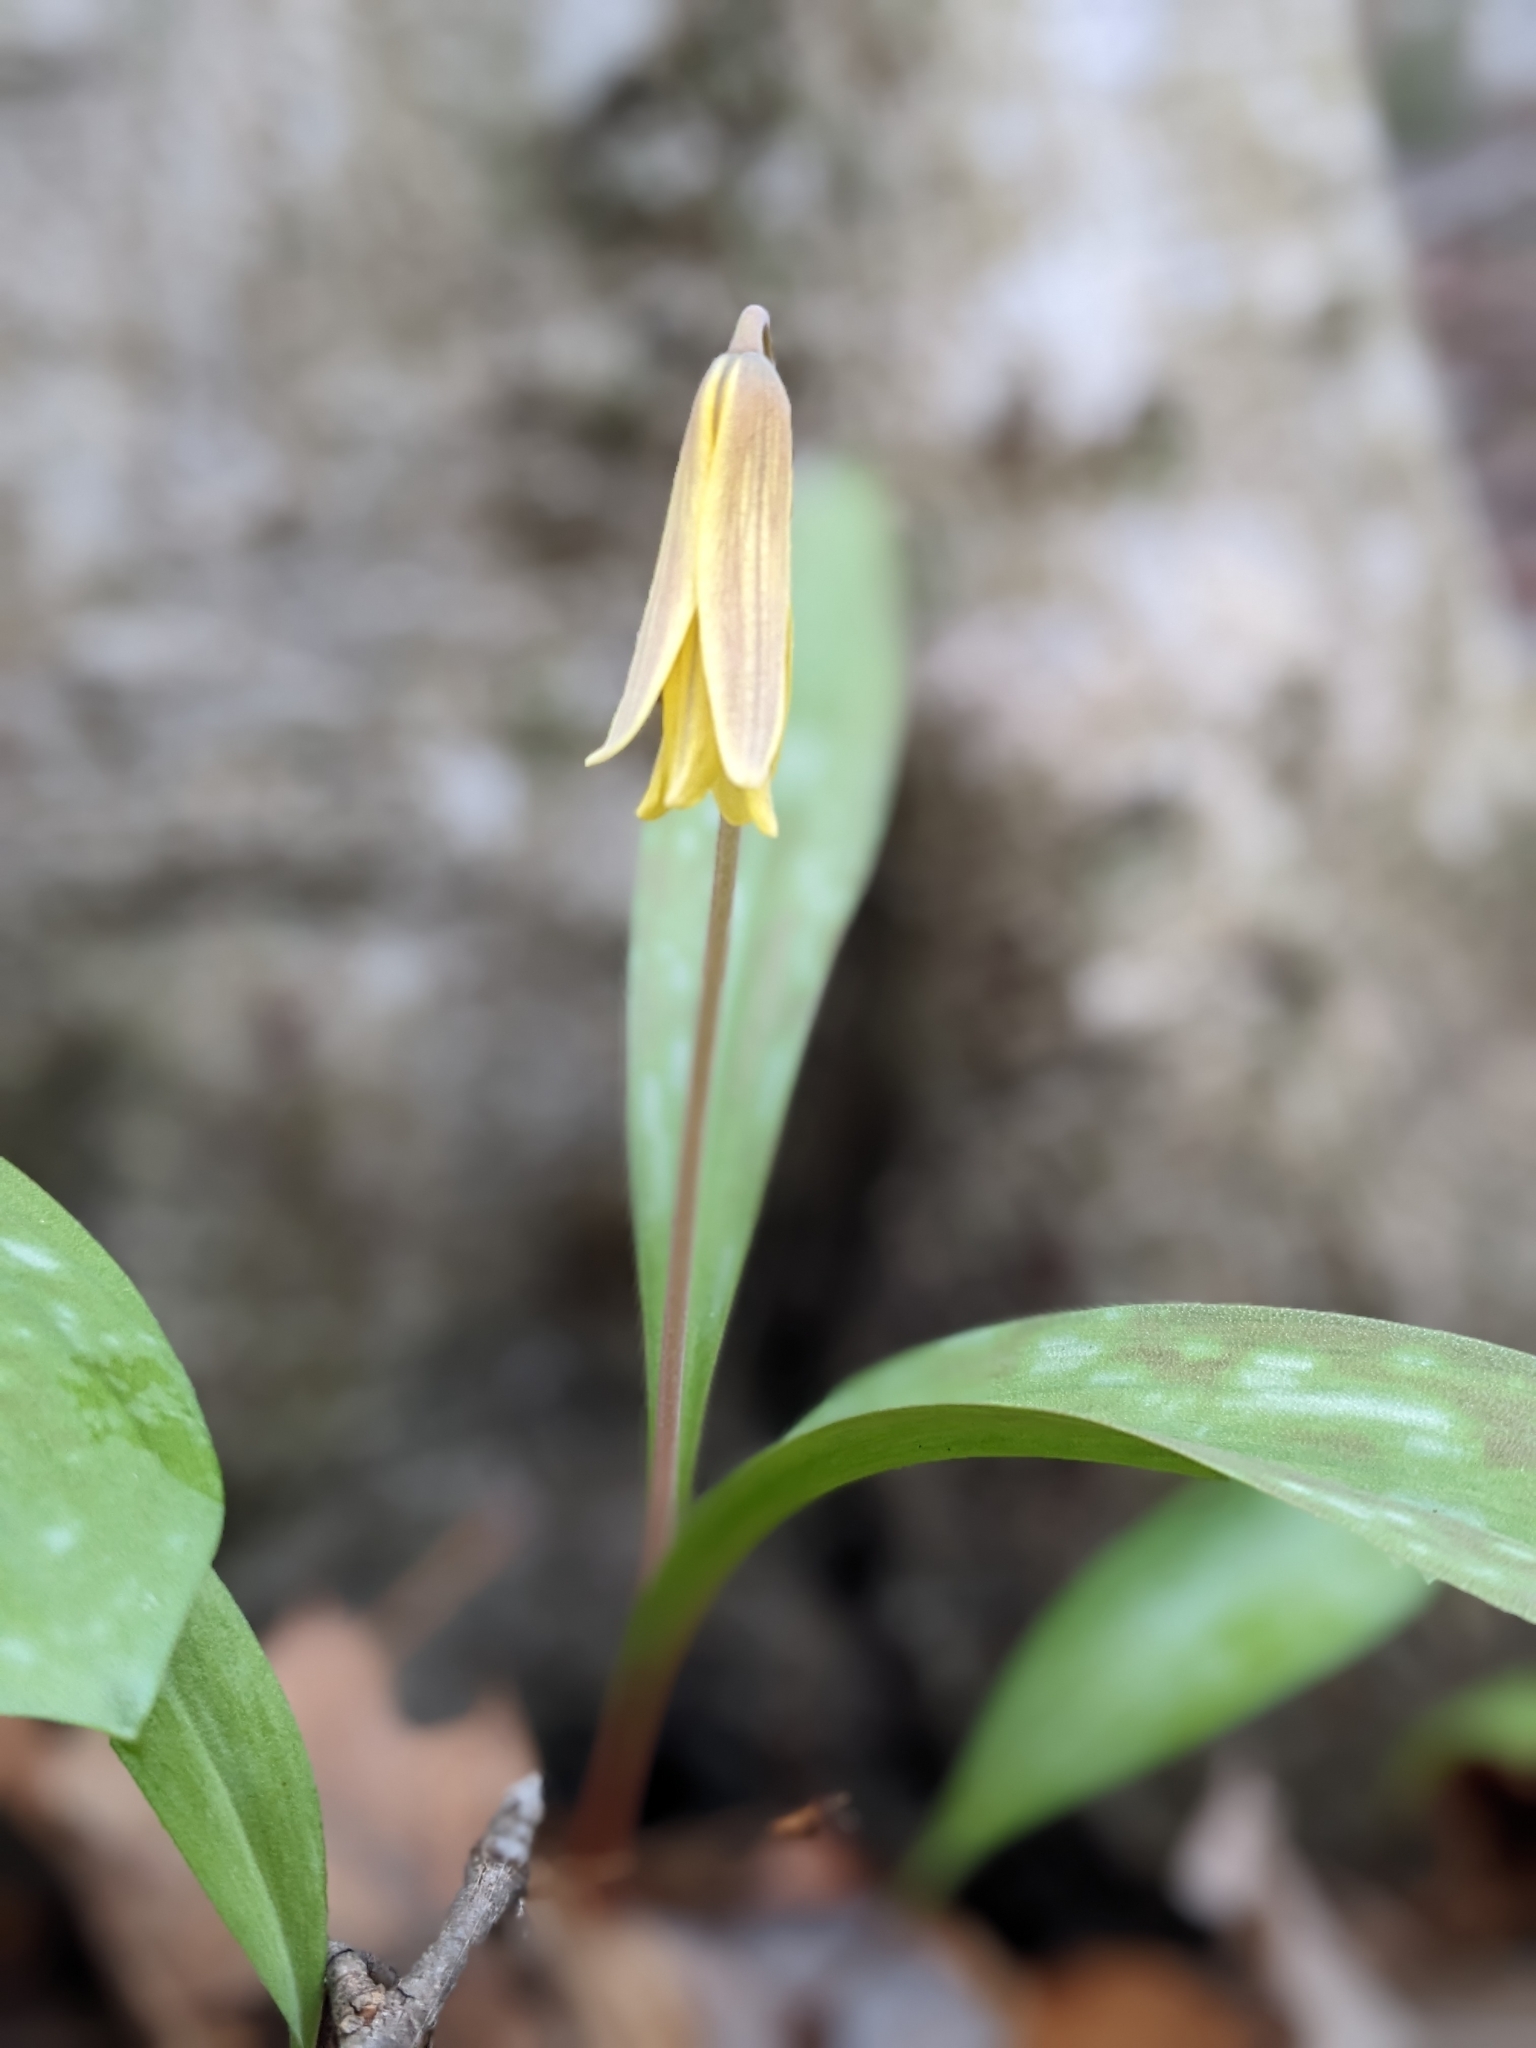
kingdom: Plantae
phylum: Tracheophyta
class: Liliopsida
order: Liliales
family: Liliaceae
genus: Erythronium
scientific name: Erythronium americanum
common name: Yellow adder's-tongue
